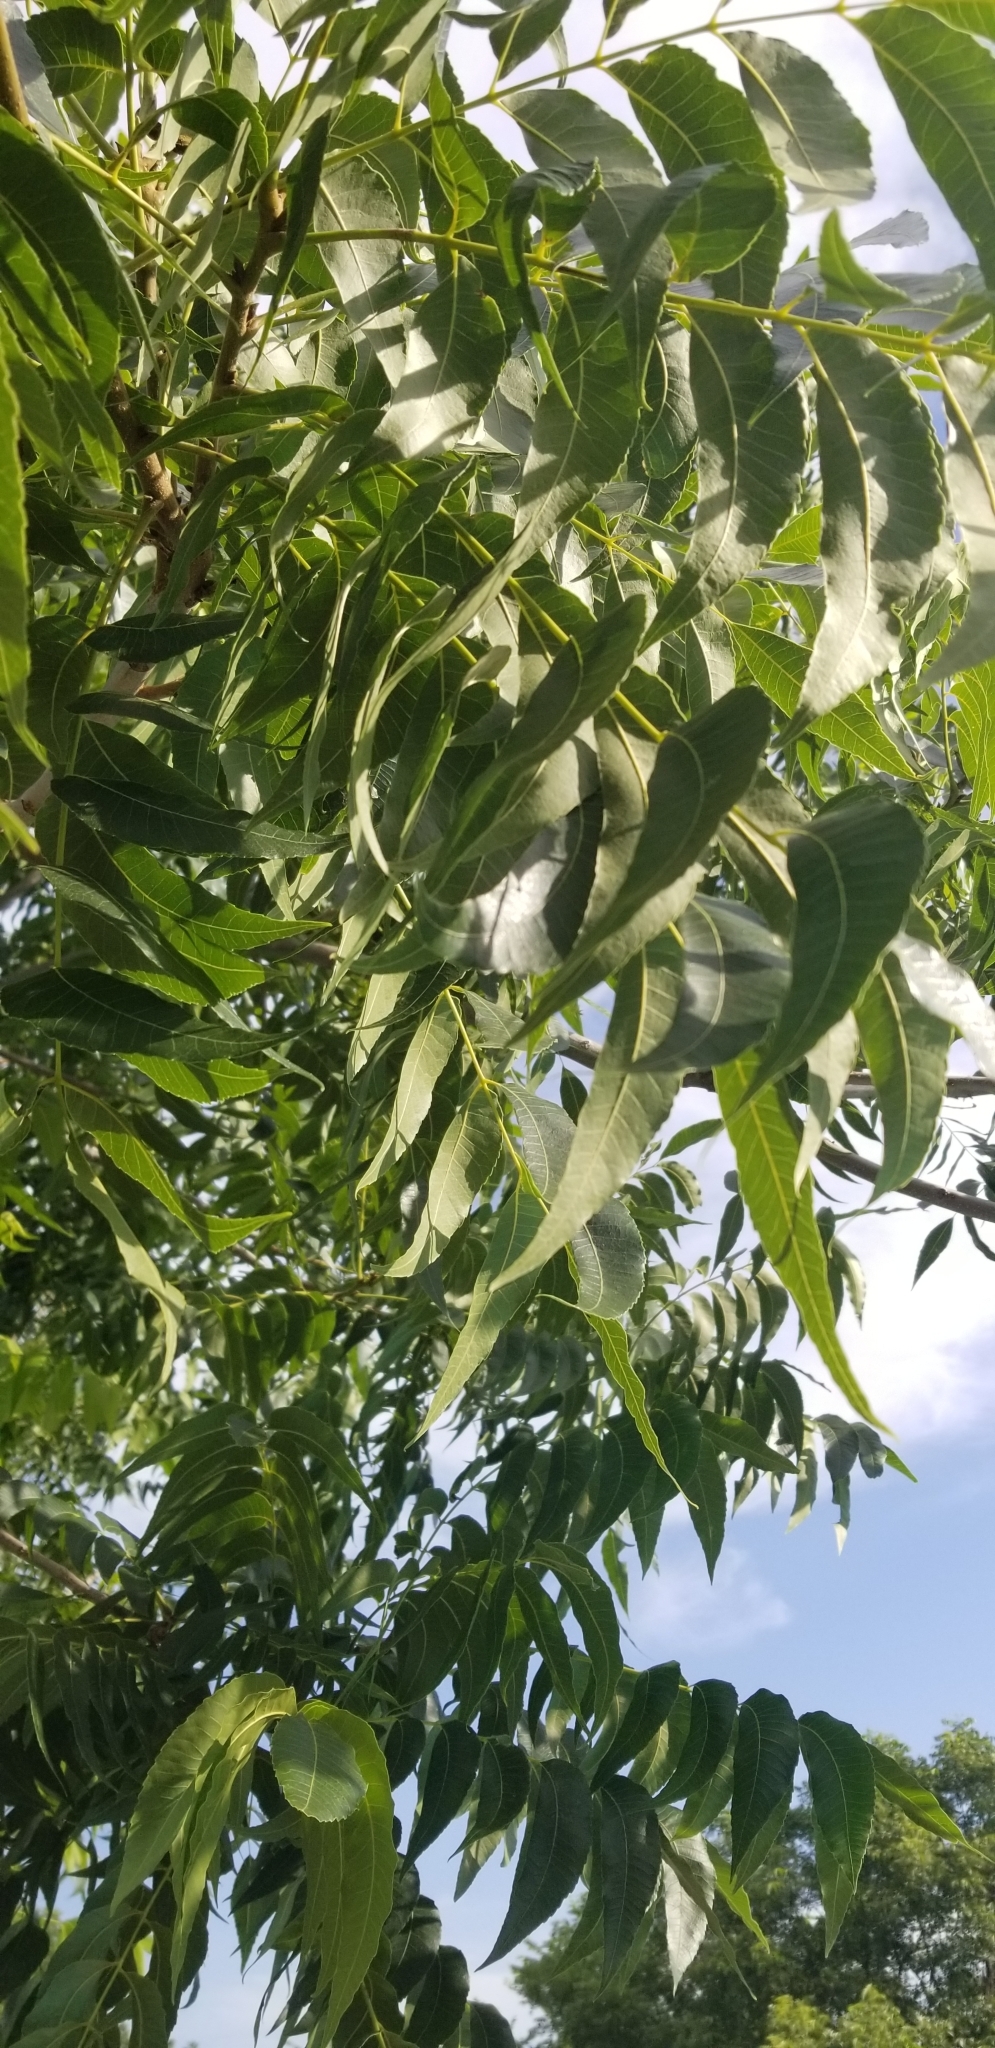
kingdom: Plantae
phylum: Tracheophyta
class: Magnoliopsida
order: Fagales
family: Juglandaceae
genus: Carya
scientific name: Carya illinoinensis
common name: Pecan
